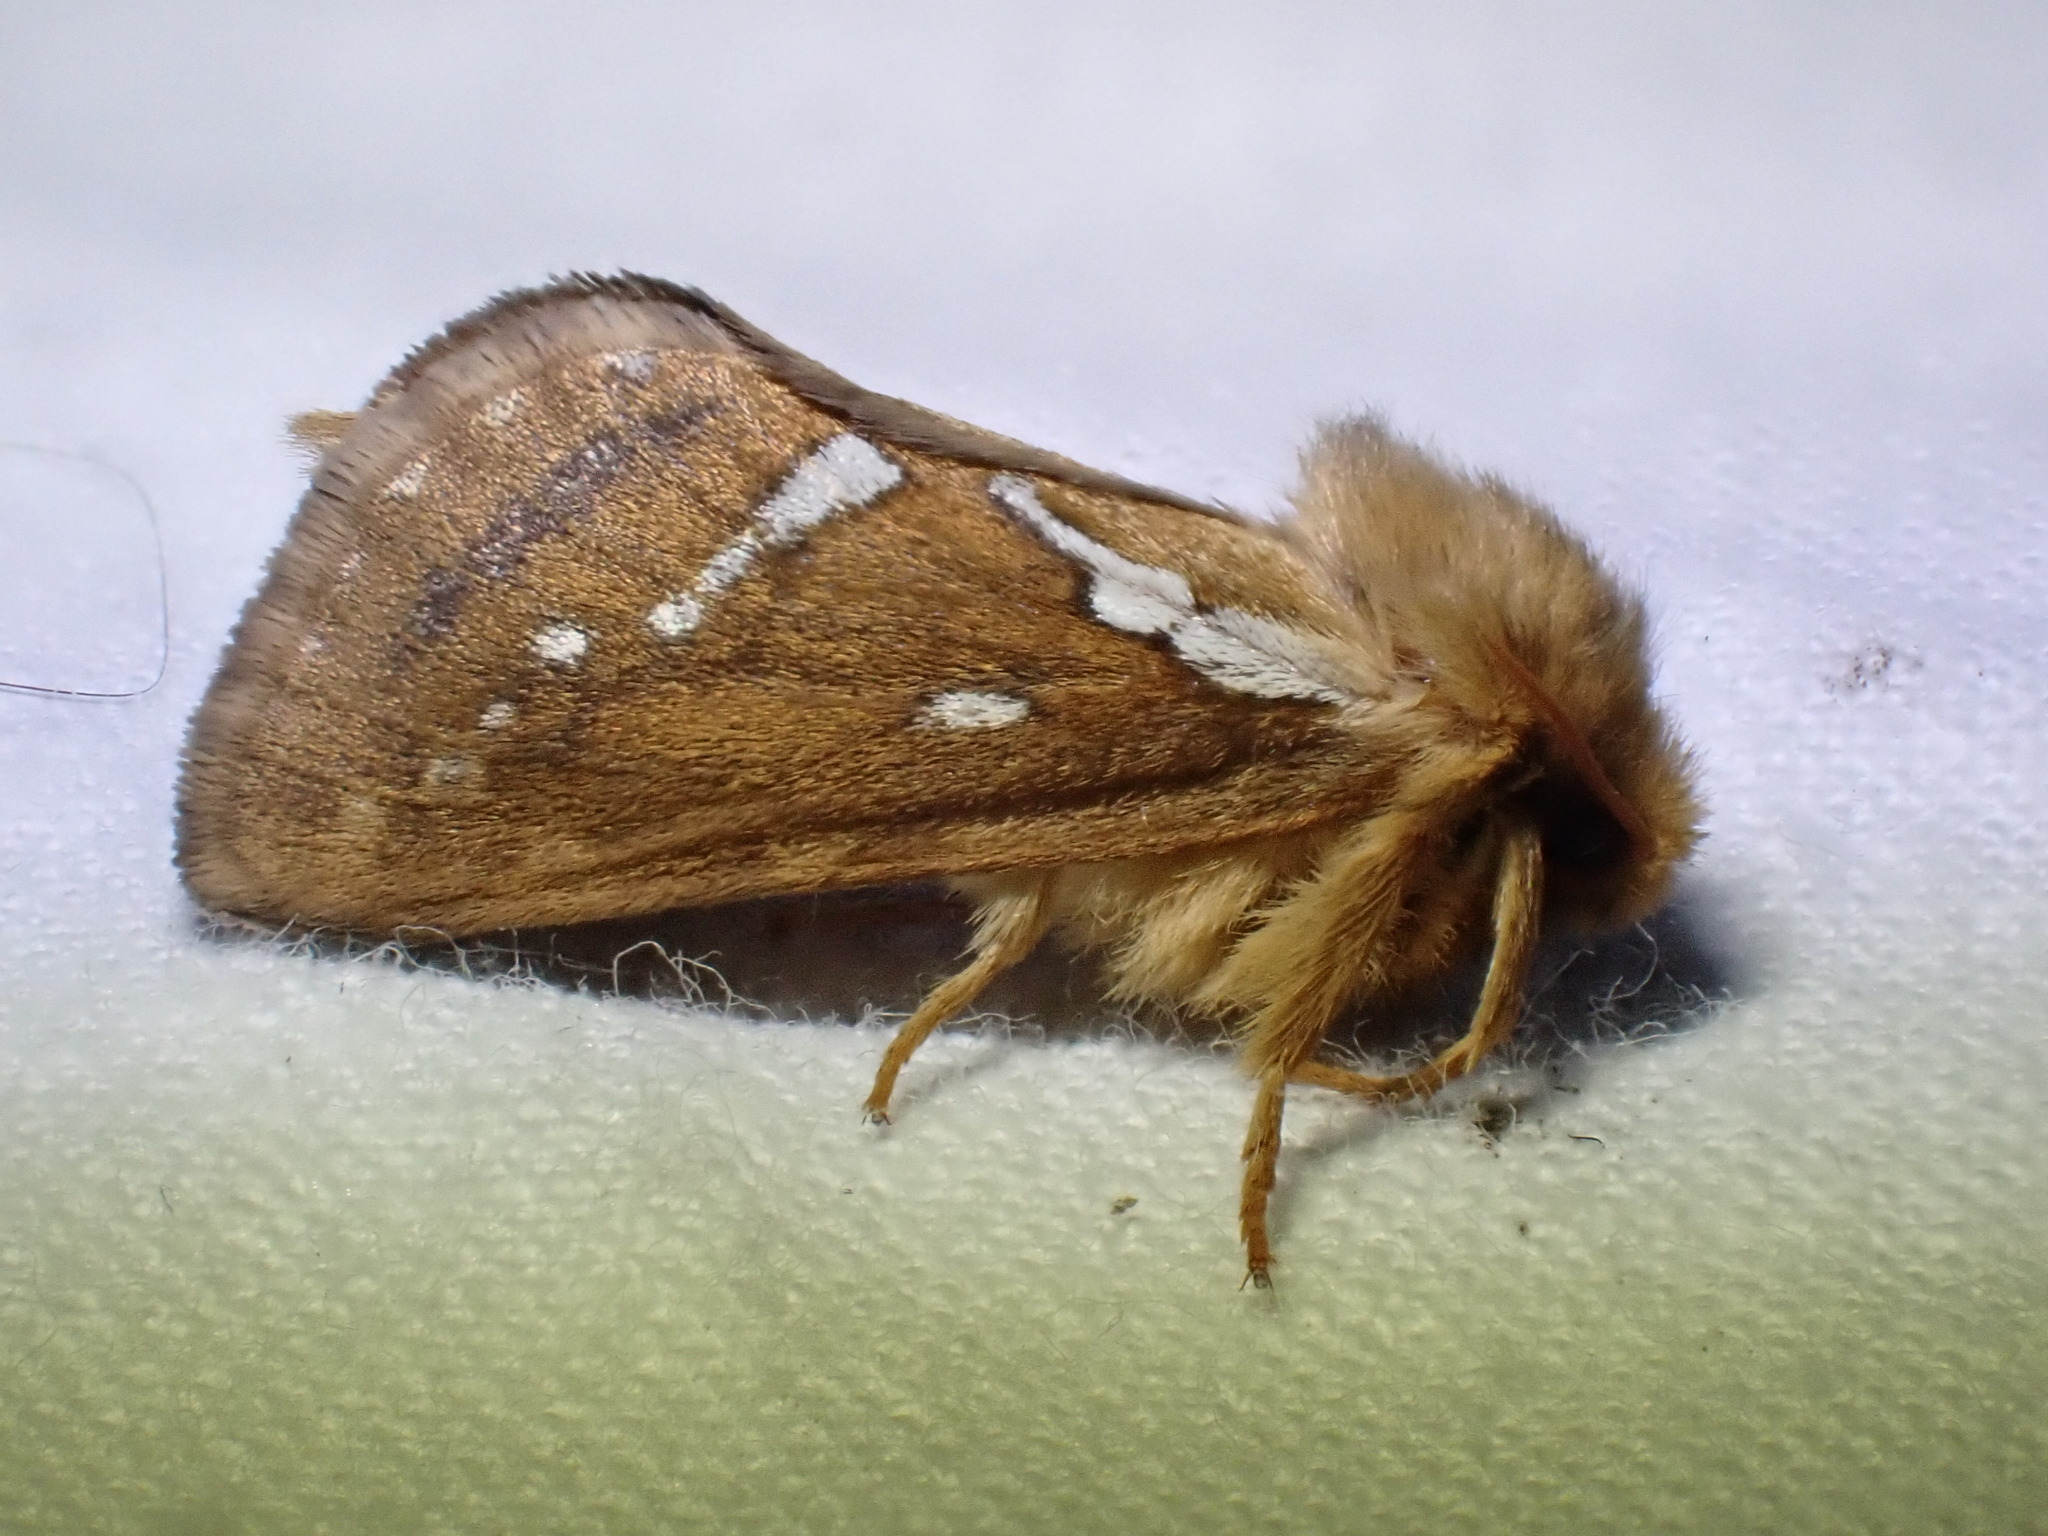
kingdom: Animalia
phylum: Arthropoda
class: Insecta
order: Lepidoptera
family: Hepialidae
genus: Korscheltellus
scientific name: Korscheltellus lupulina
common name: Common swift
